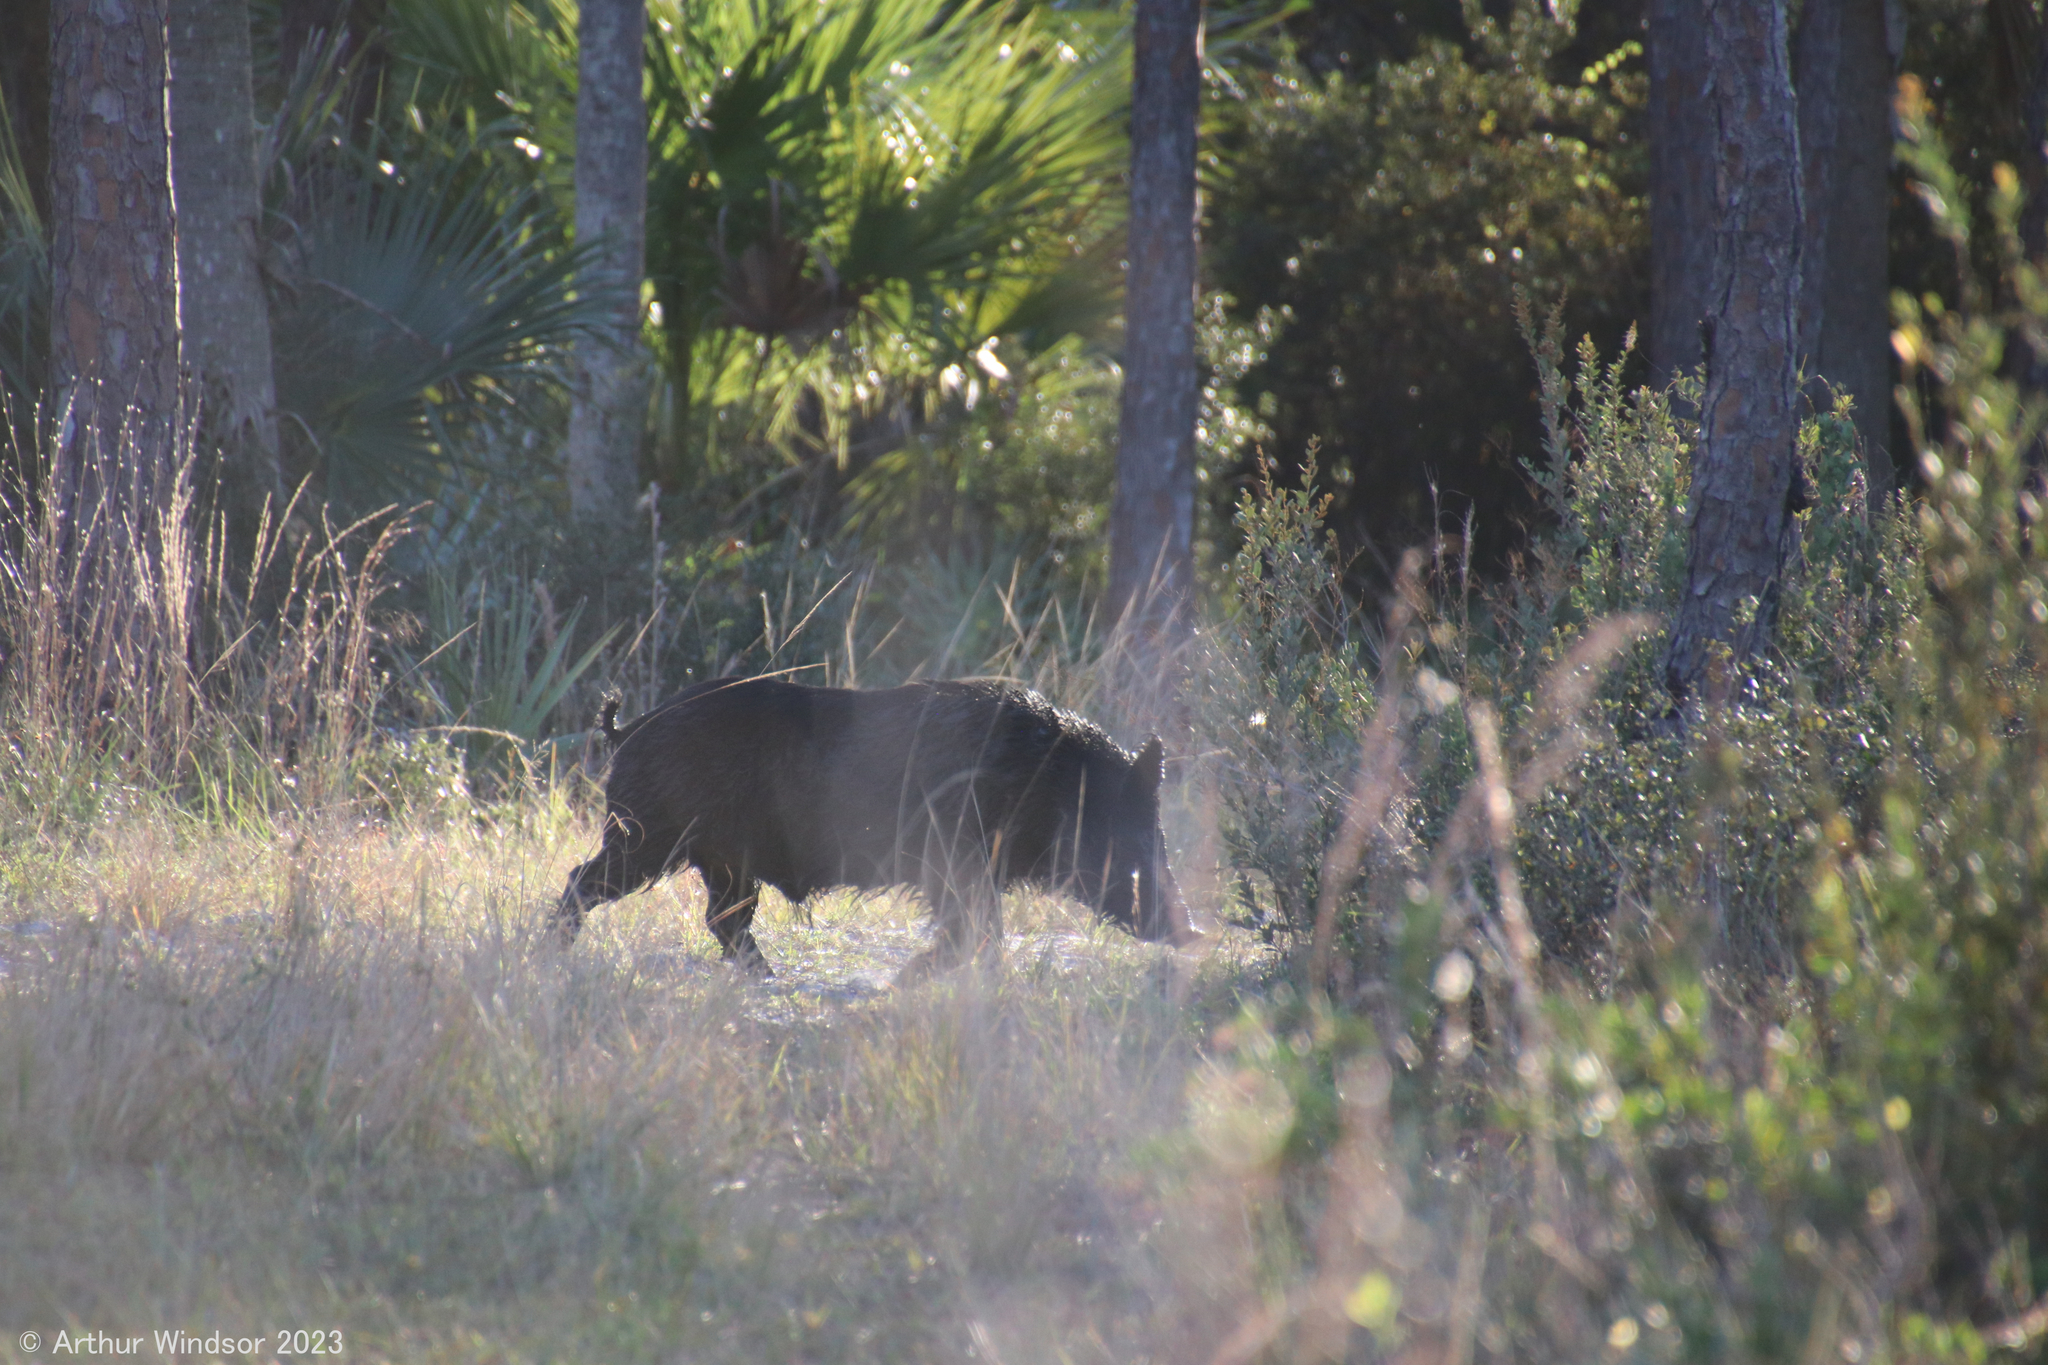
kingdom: Animalia
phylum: Chordata
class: Mammalia
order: Artiodactyla
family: Suidae
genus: Sus
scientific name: Sus scrofa
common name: Wild boar
